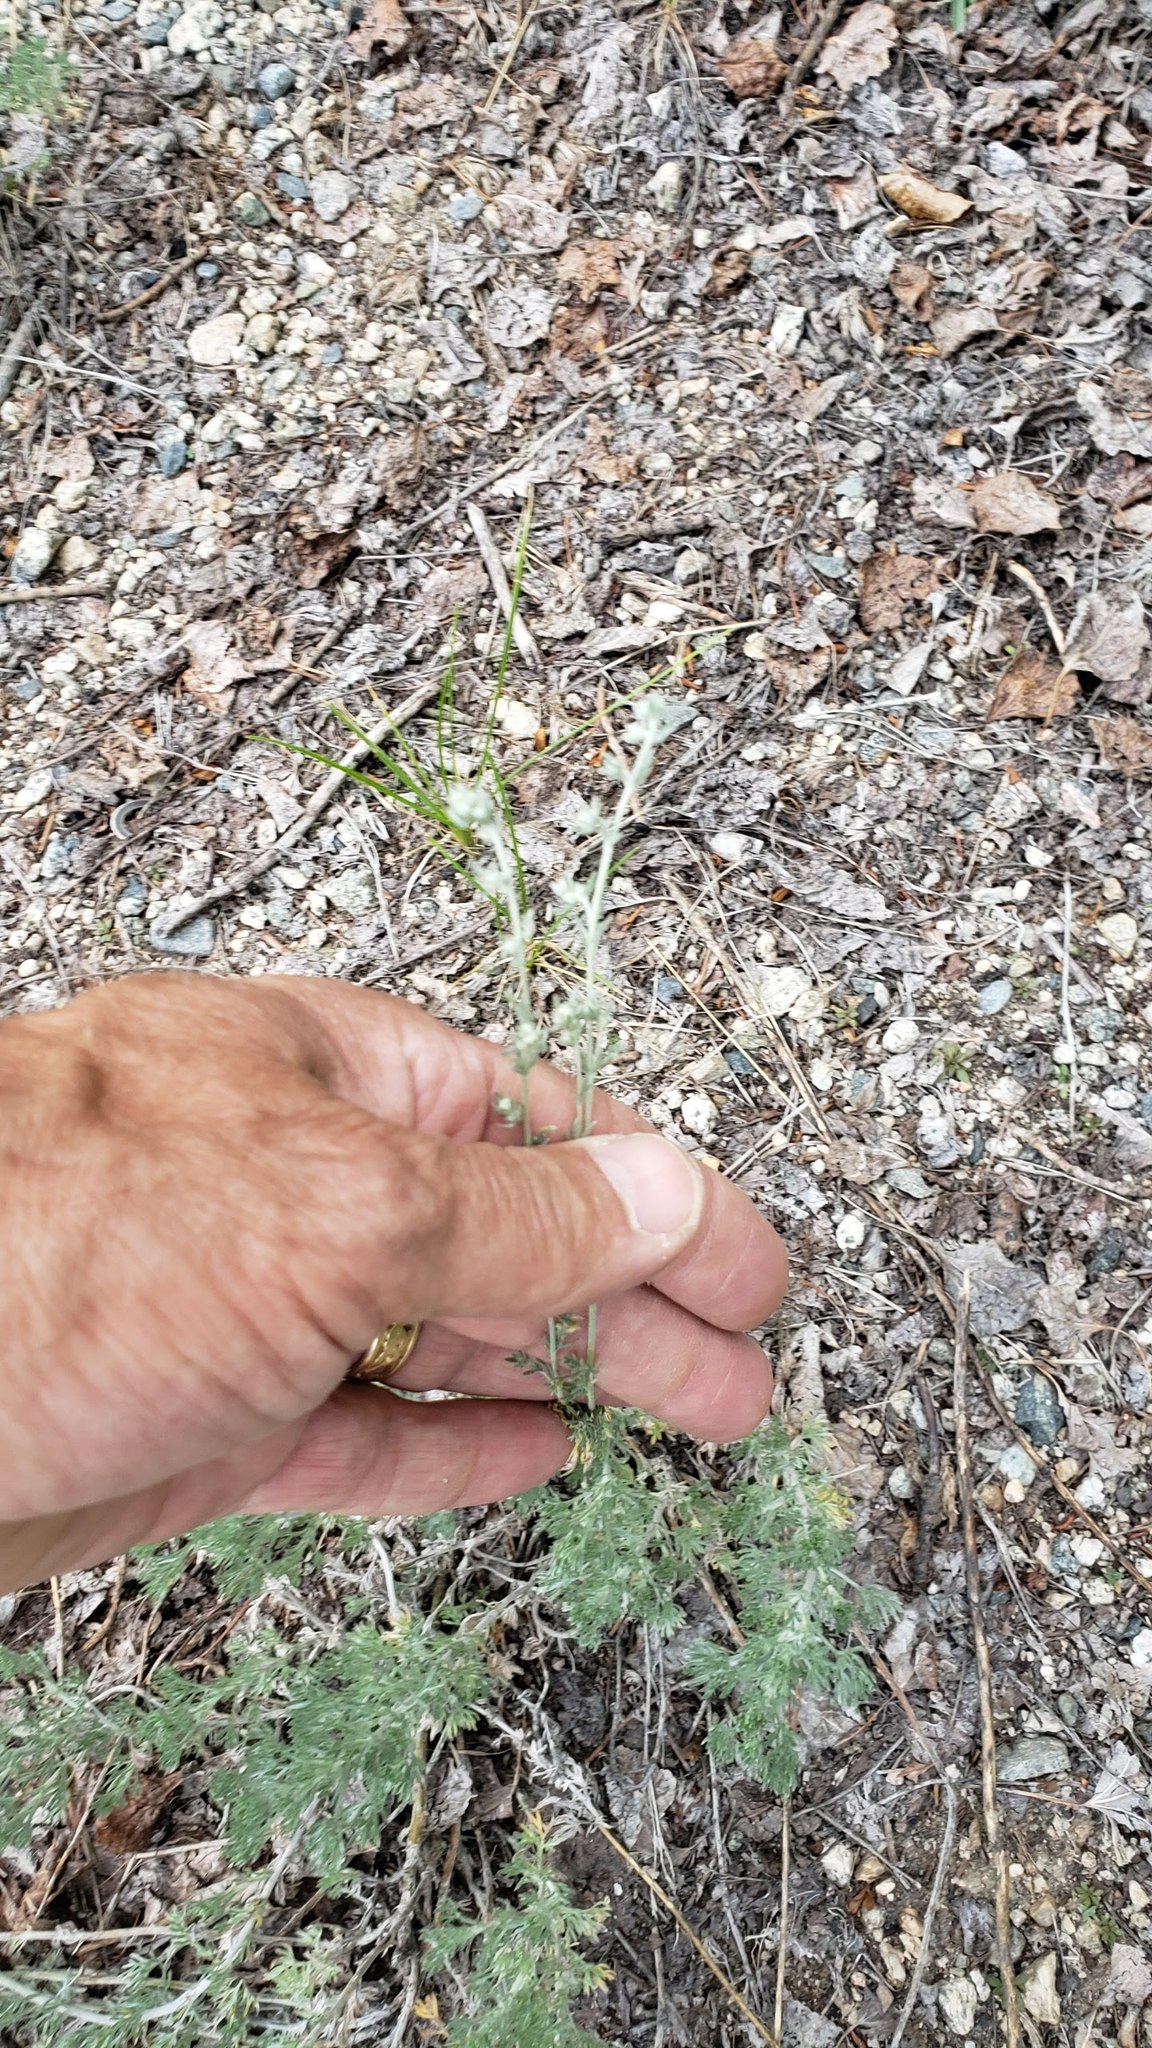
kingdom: Plantae
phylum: Tracheophyta
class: Magnoliopsida
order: Asterales
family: Asteraceae
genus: Artemisia
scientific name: Artemisia frigida
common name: Prairie sagewort
